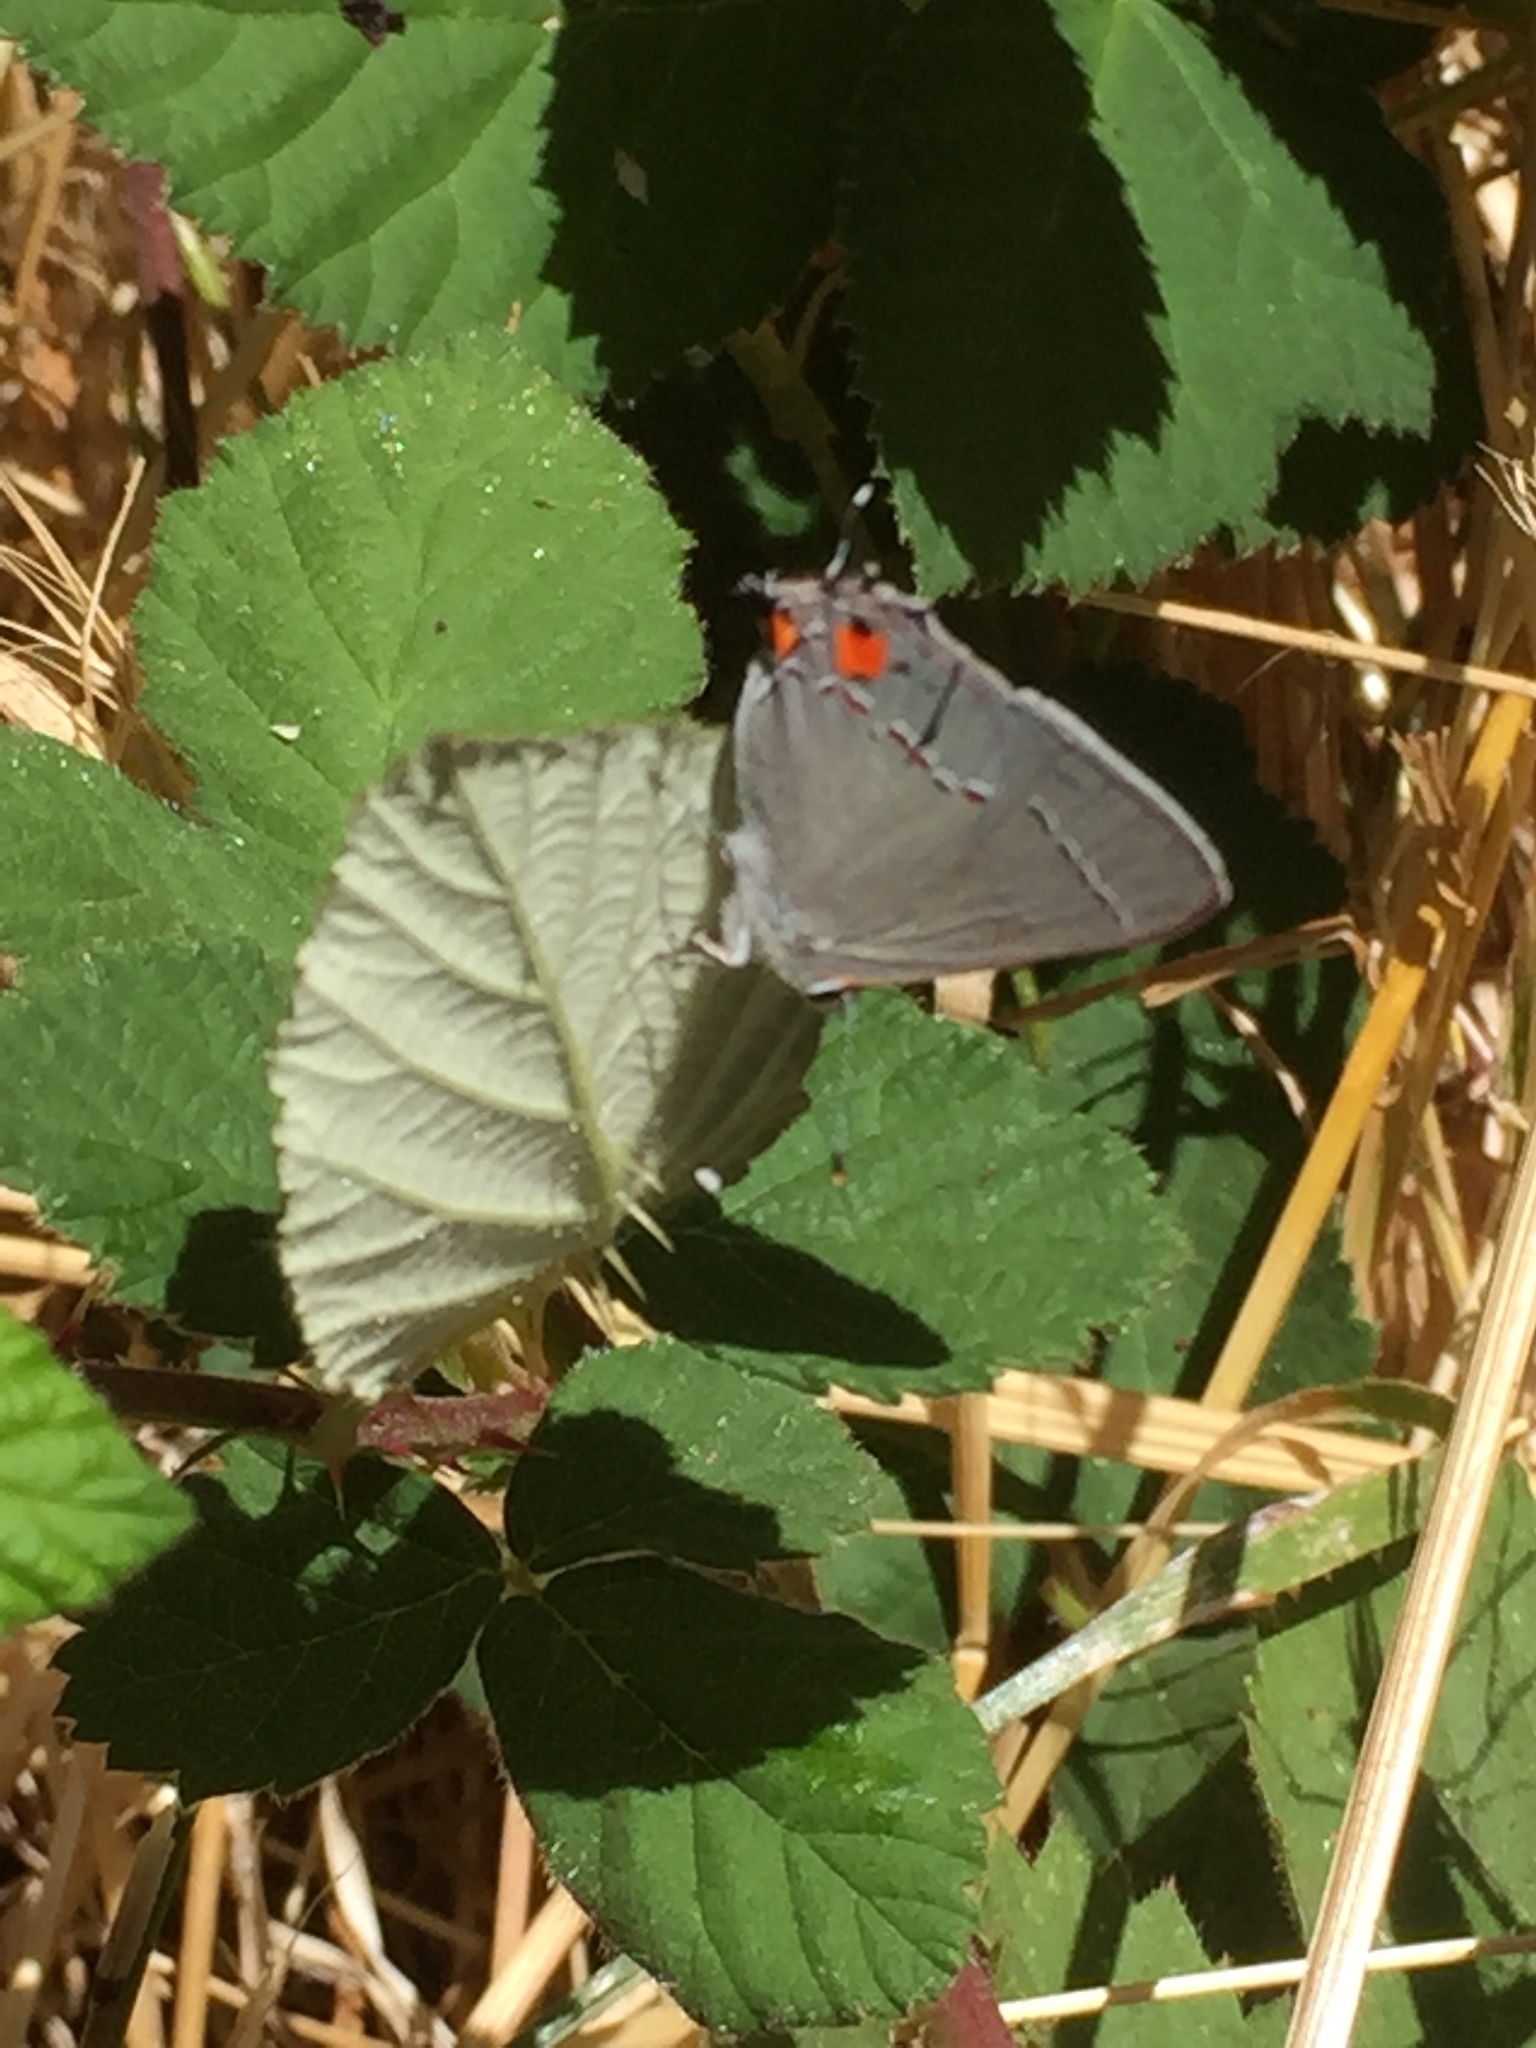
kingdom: Animalia
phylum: Arthropoda
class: Insecta
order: Lepidoptera
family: Lycaenidae
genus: Strymon
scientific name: Strymon melinus
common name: Gray hairstreak
